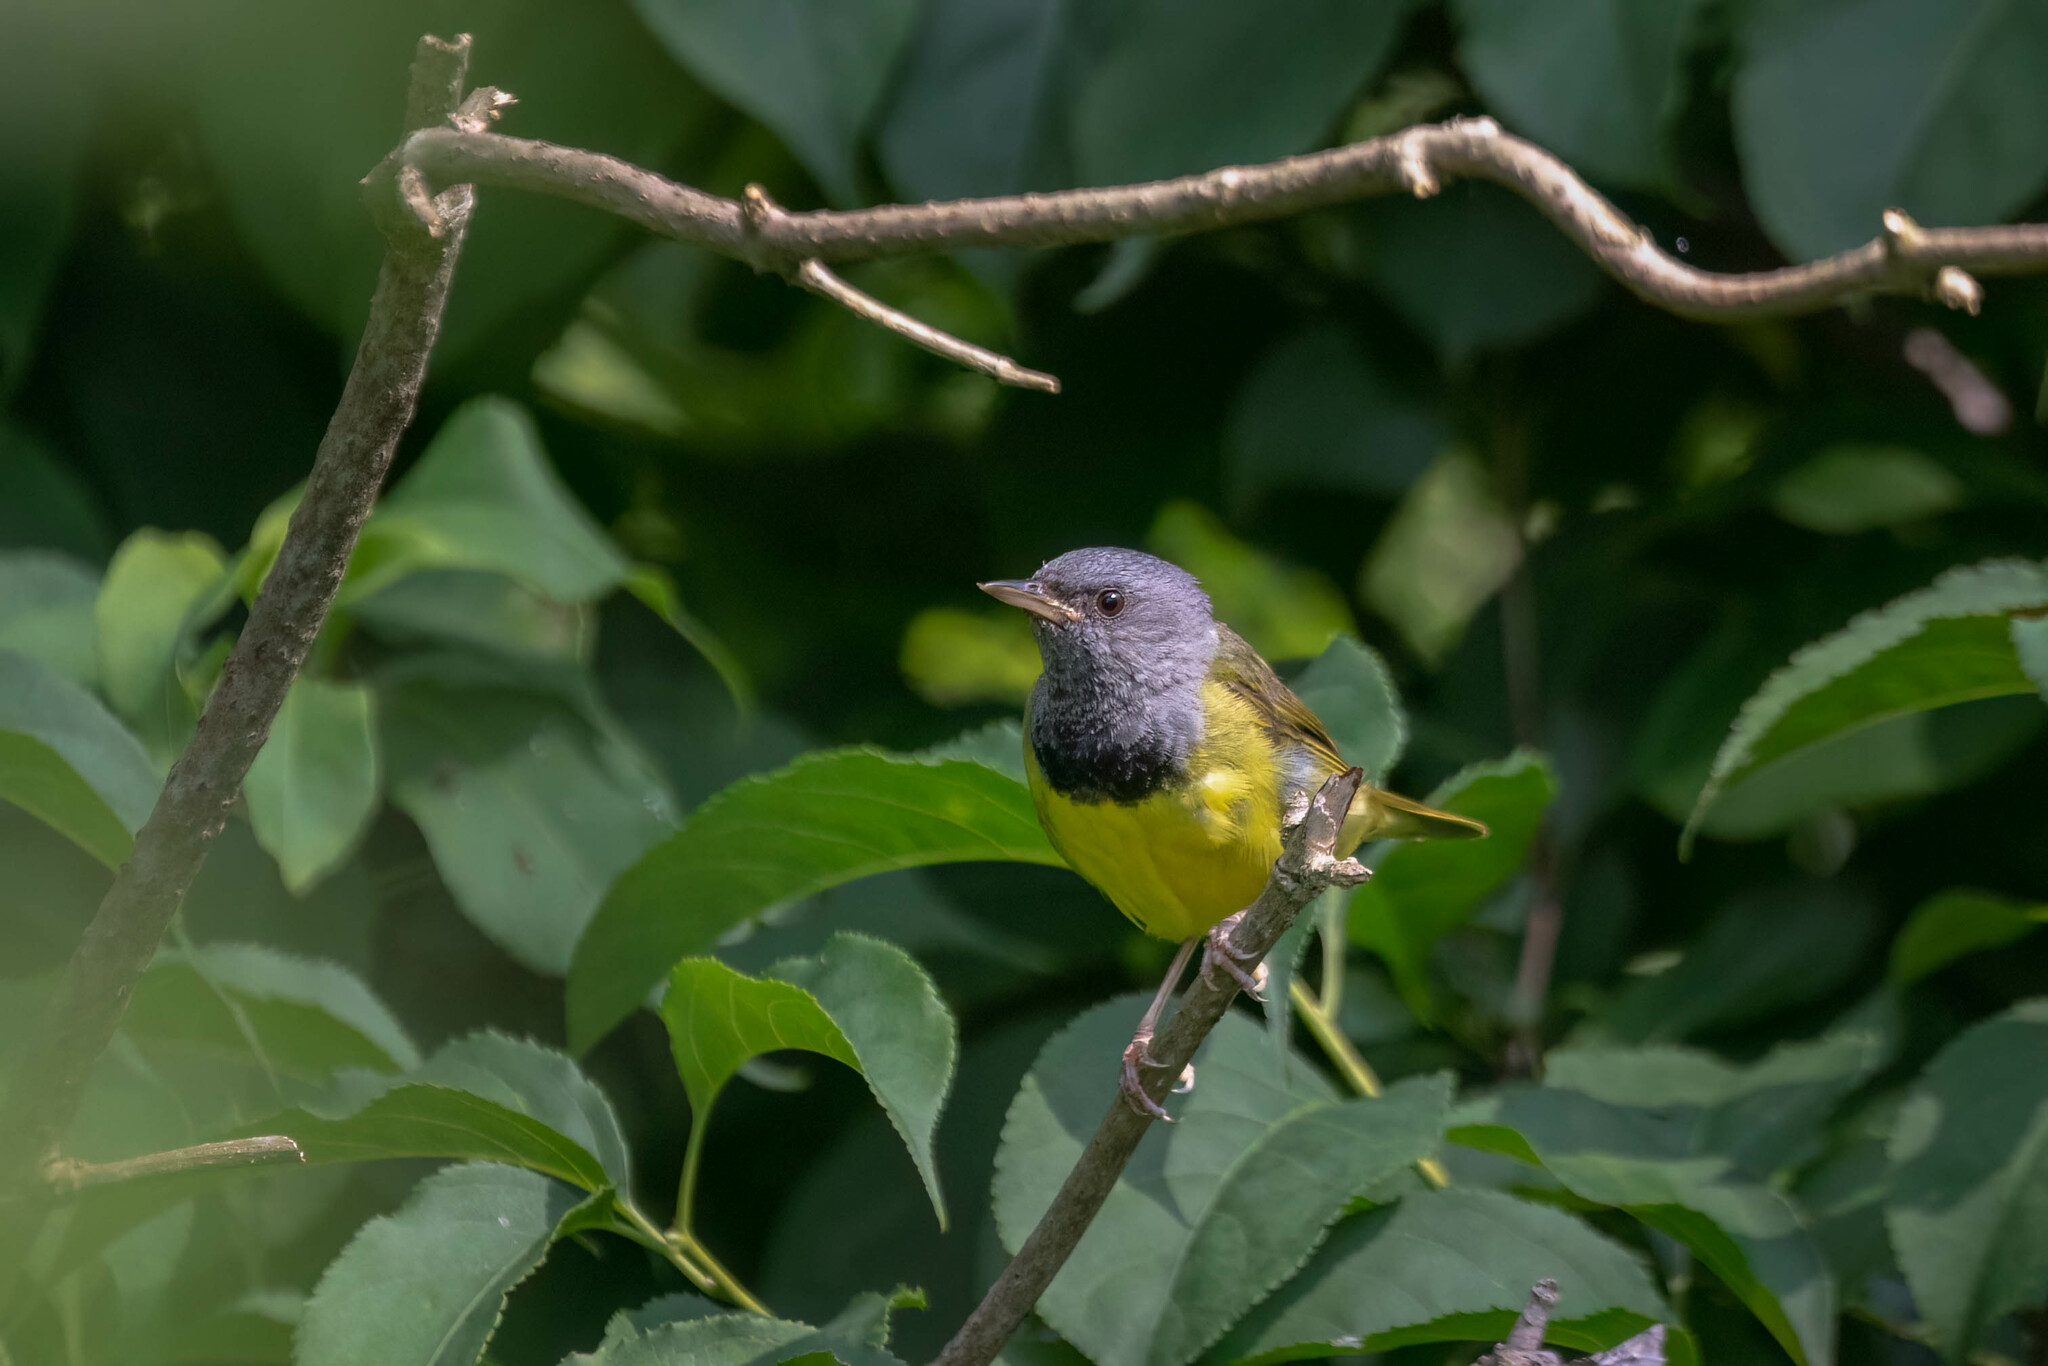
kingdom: Animalia
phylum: Chordata
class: Aves
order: Passeriformes
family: Parulidae
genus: Geothlypis
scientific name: Geothlypis philadelphia
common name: Mourning warbler
